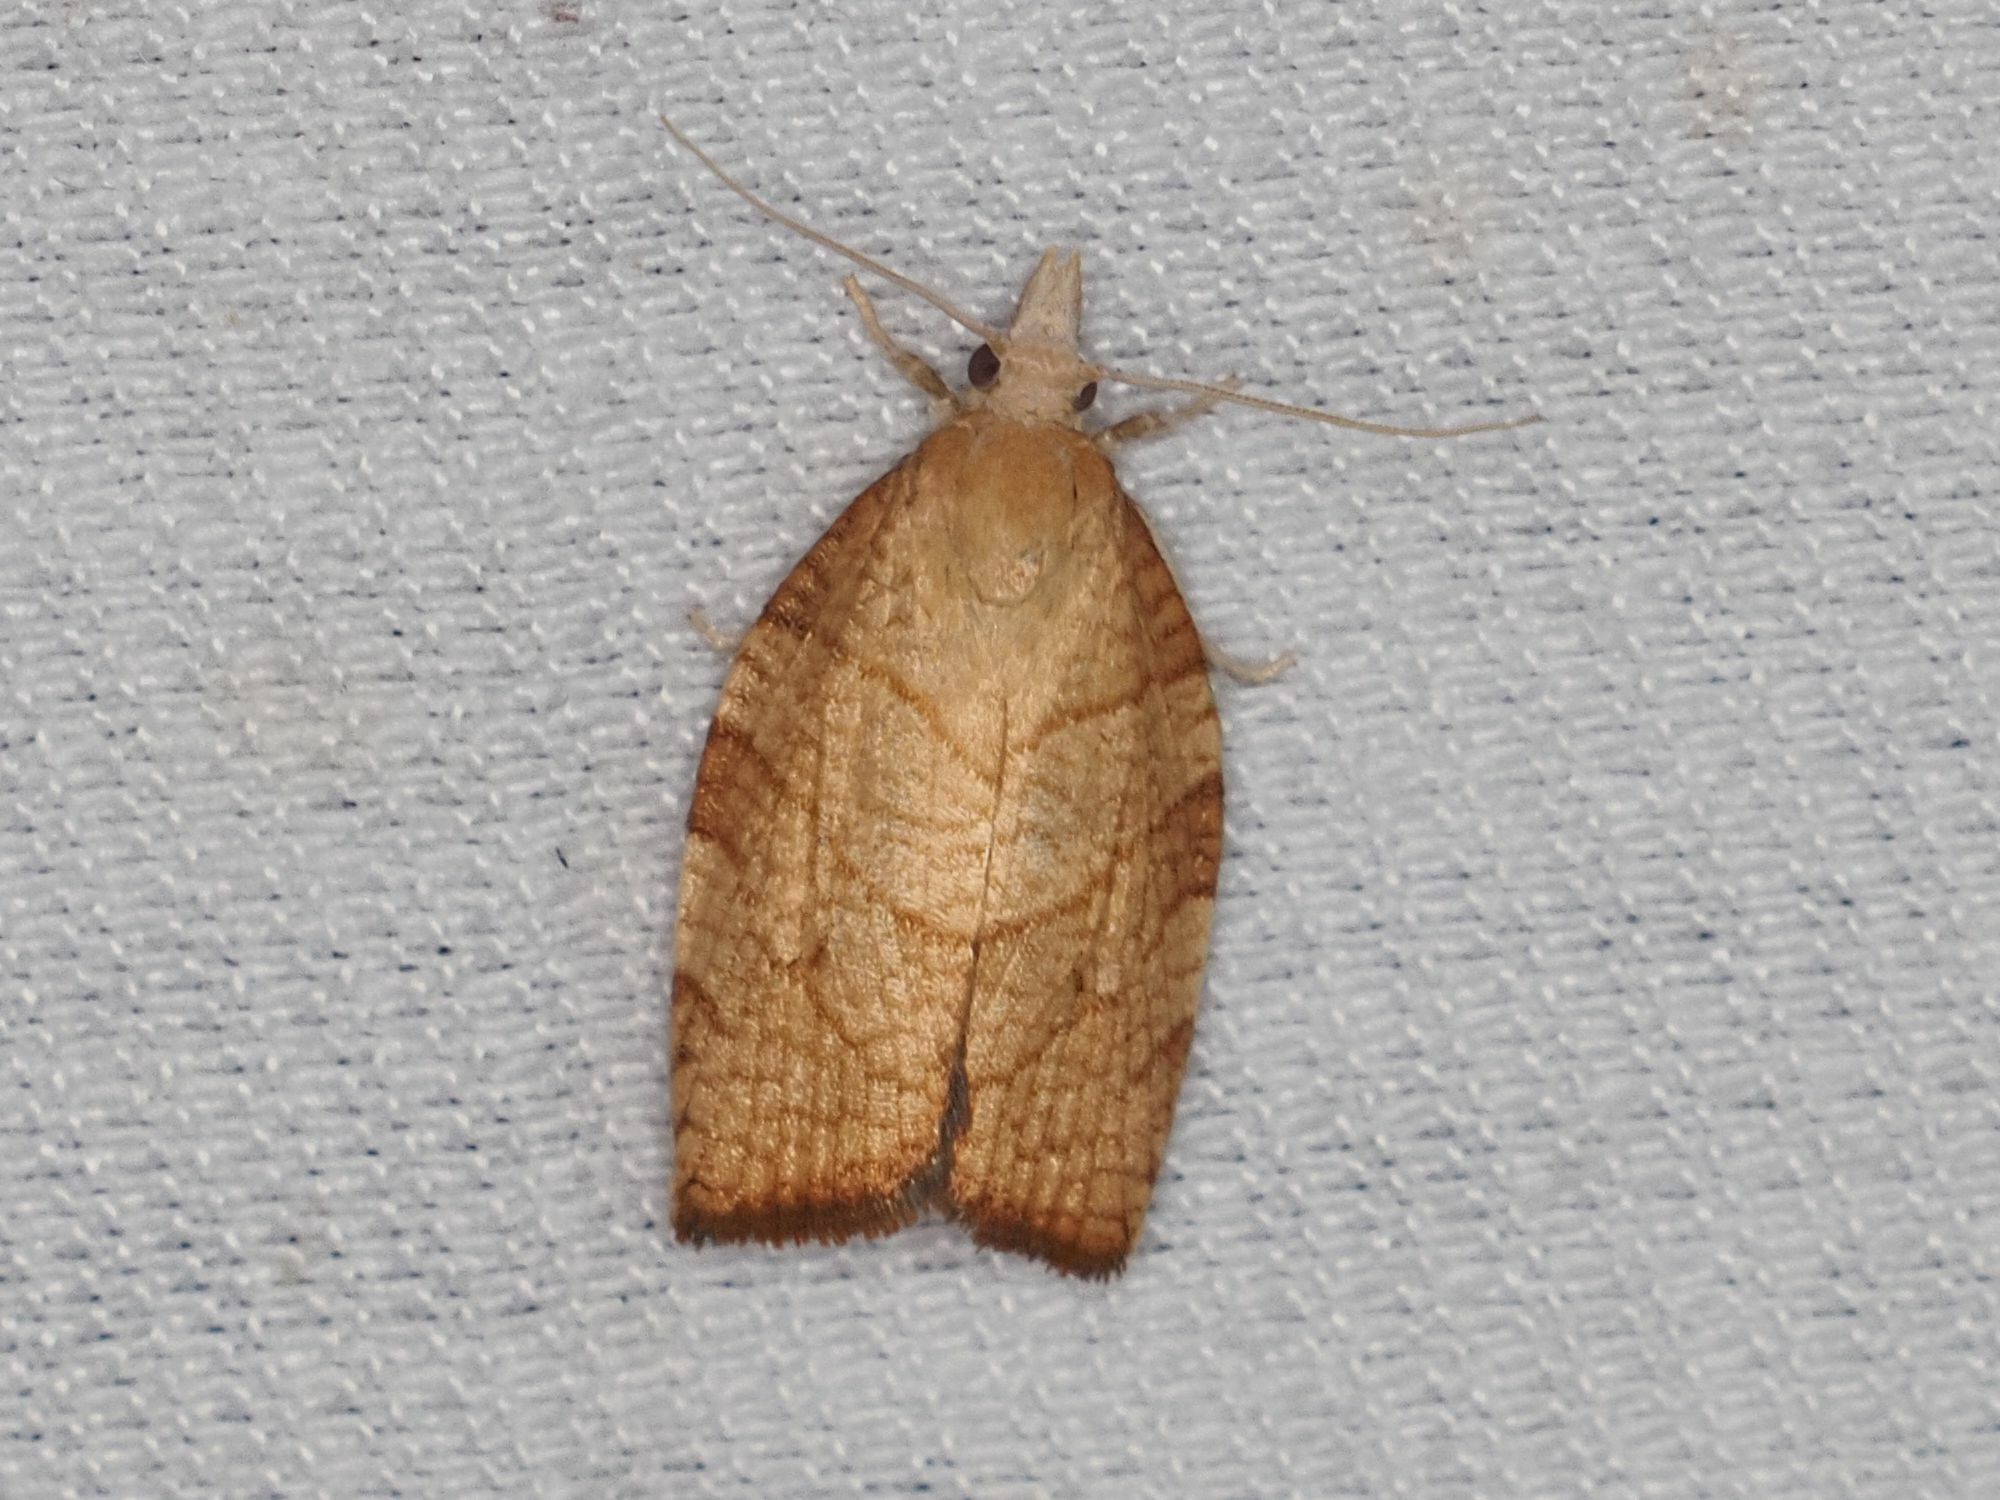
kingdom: Animalia
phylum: Arthropoda
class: Insecta
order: Lepidoptera
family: Tortricidae
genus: Pandemis
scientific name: Pandemis corylana
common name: Chequered fruit-tree tortrix
